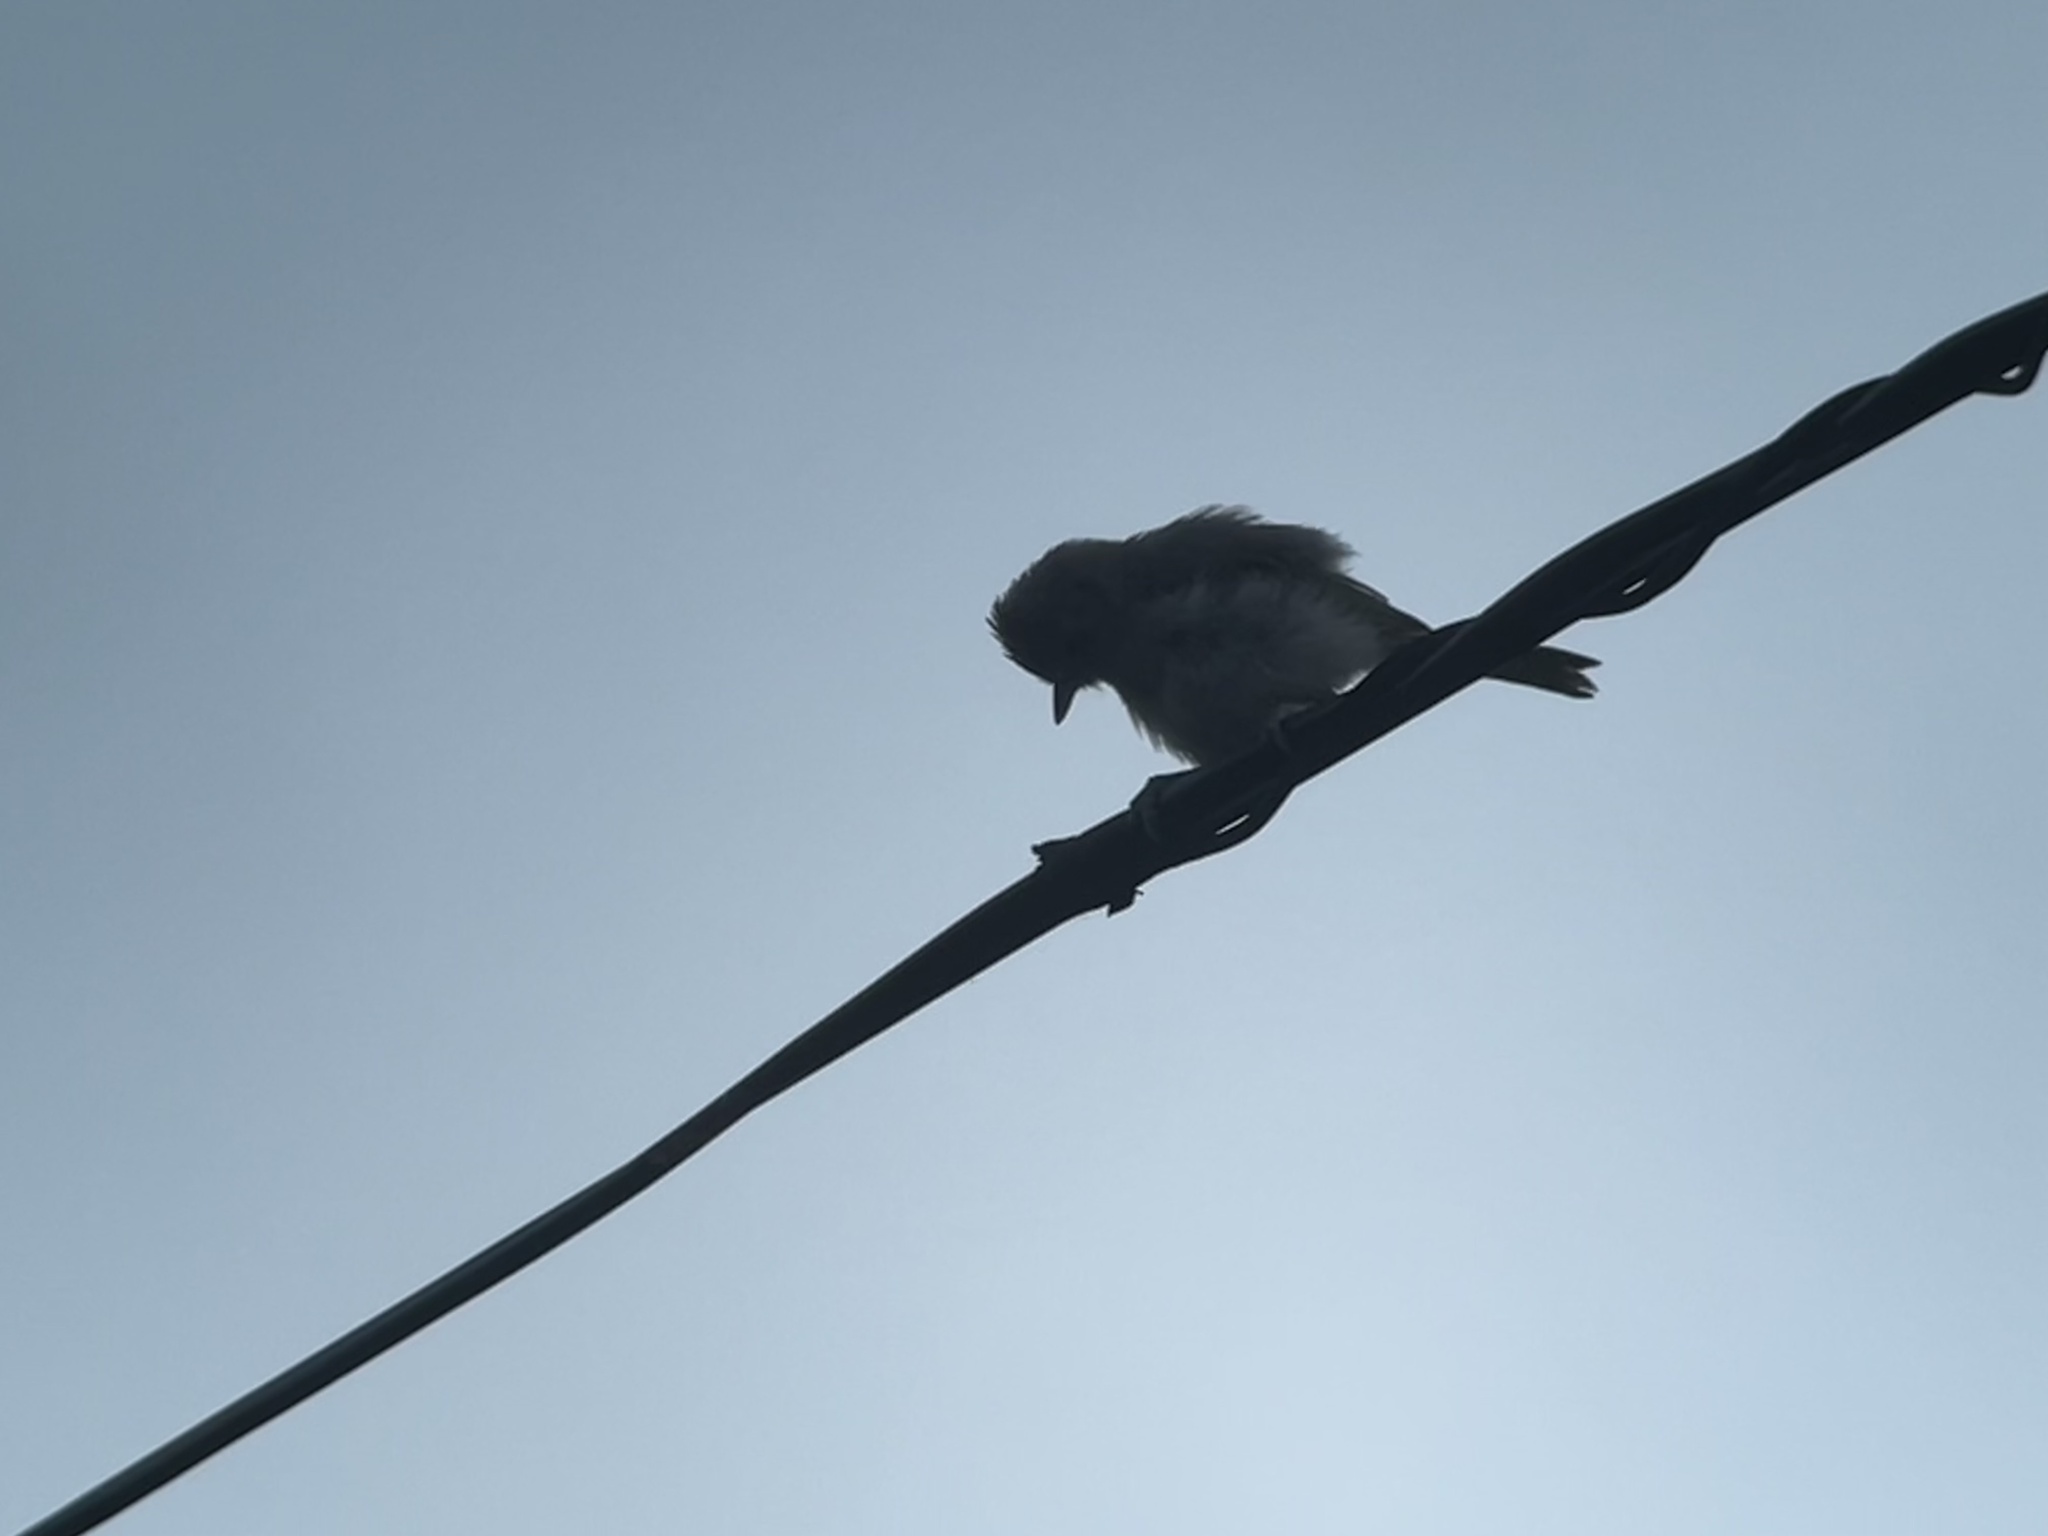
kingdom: Animalia
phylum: Chordata
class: Aves
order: Passeriformes
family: Paridae
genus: Baeolophus
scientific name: Baeolophus inornatus
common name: Oak titmouse
